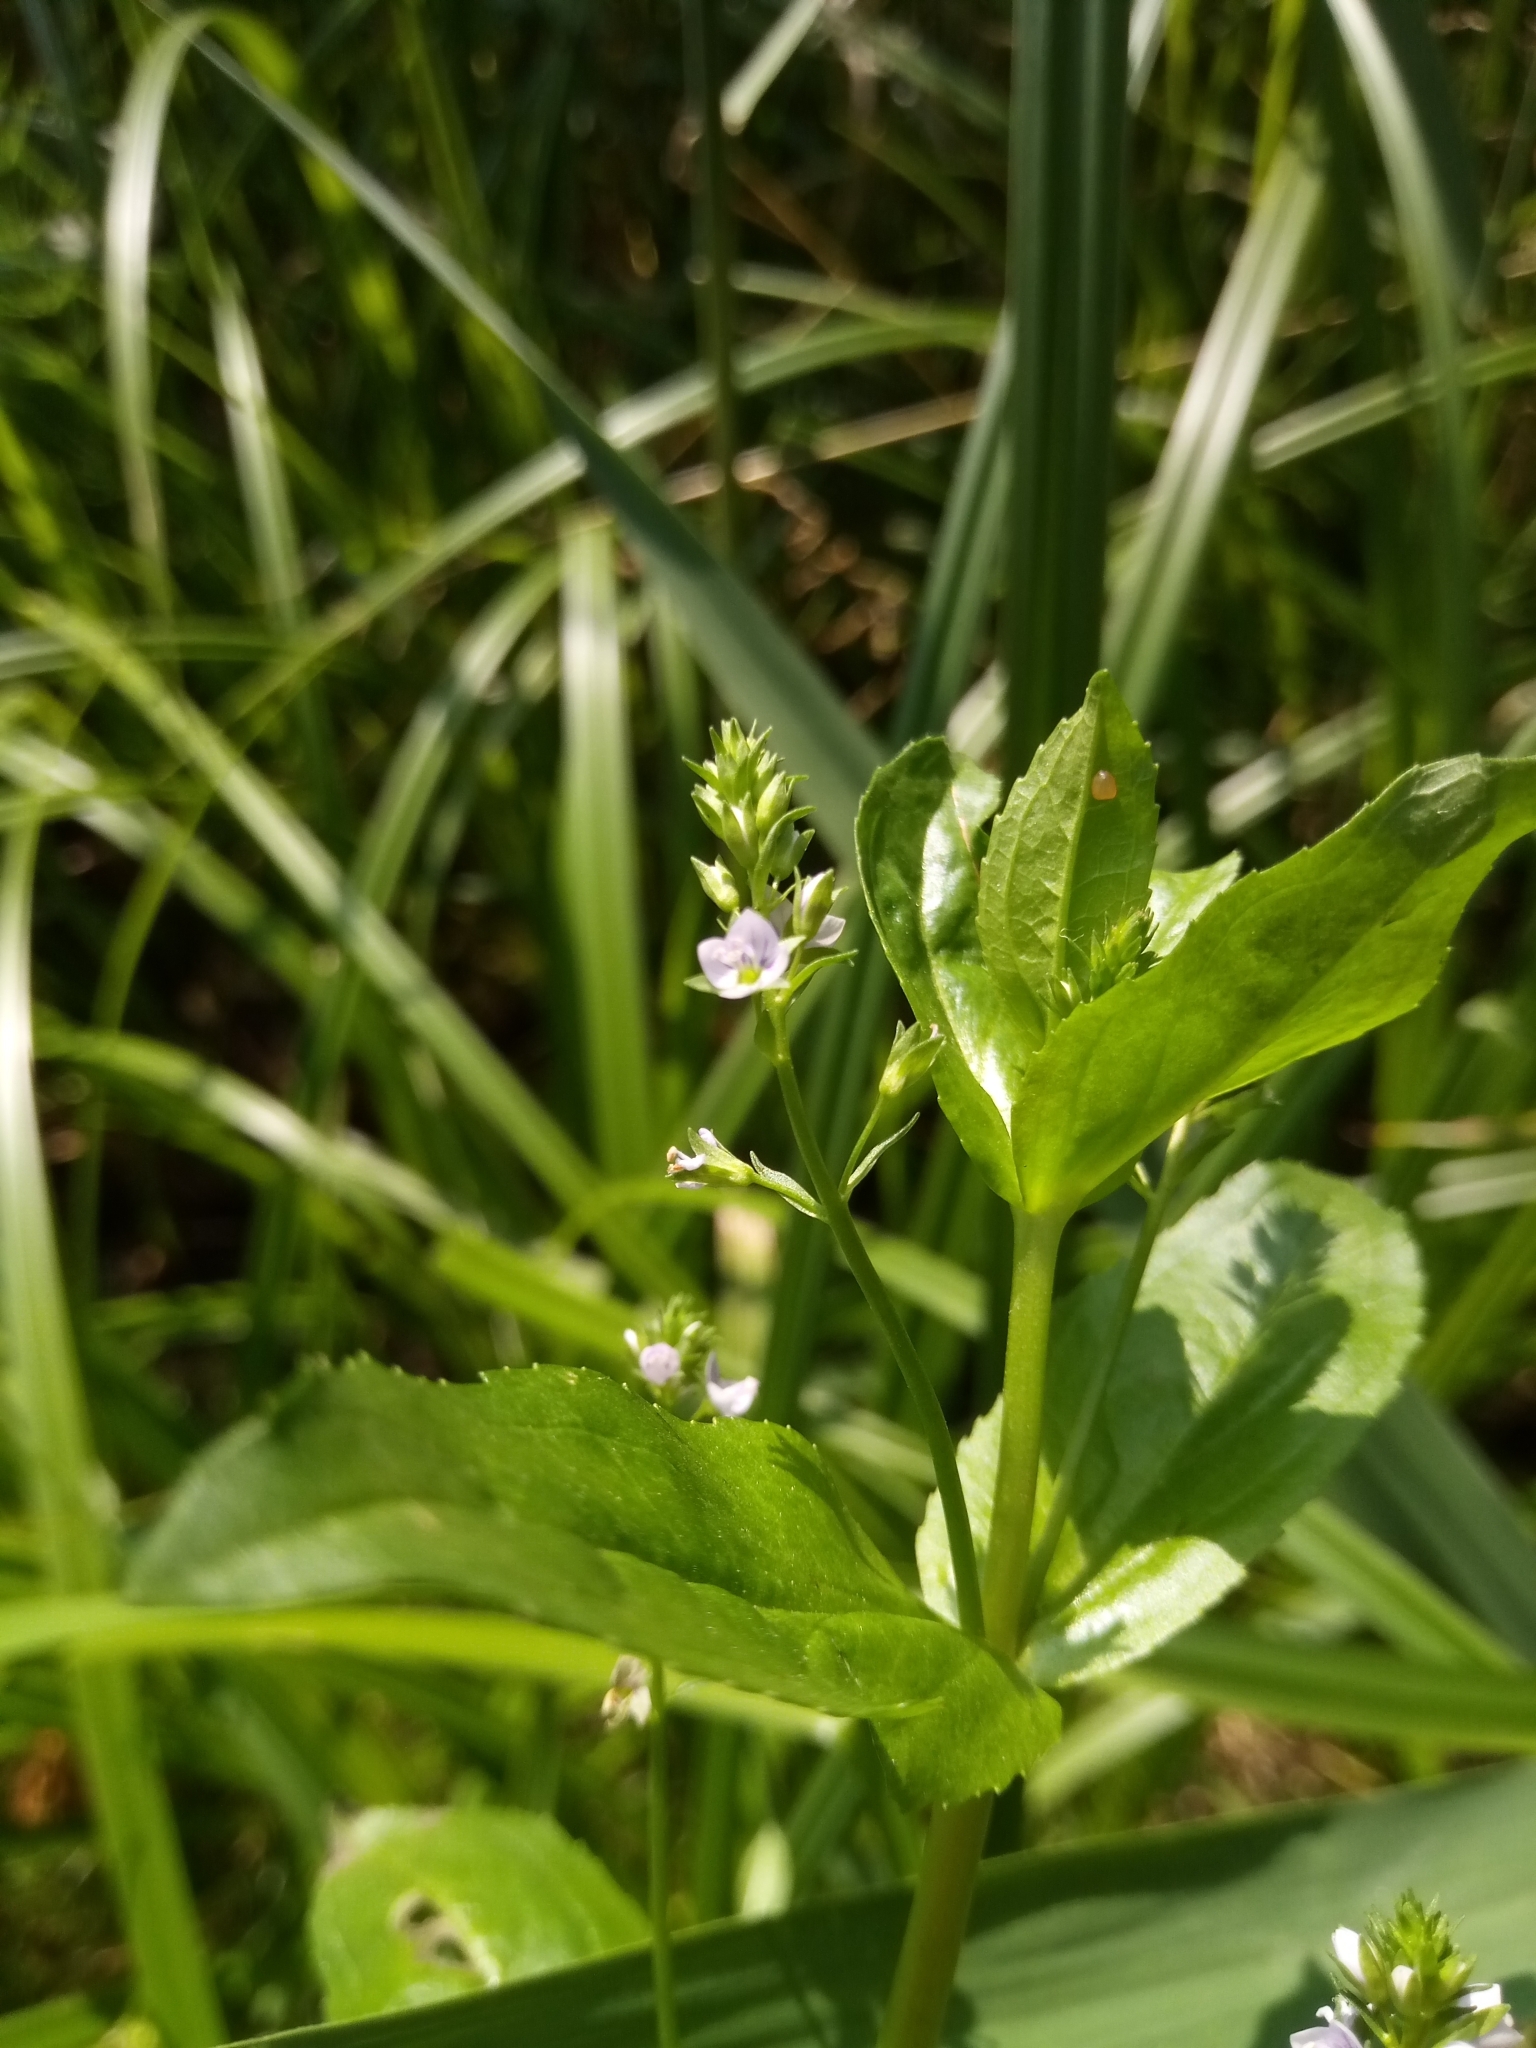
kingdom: Plantae
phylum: Tracheophyta
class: Magnoliopsida
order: Lamiales
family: Plantaginaceae
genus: Veronica
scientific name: Veronica anagallis-aquatica
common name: Water speedwell
